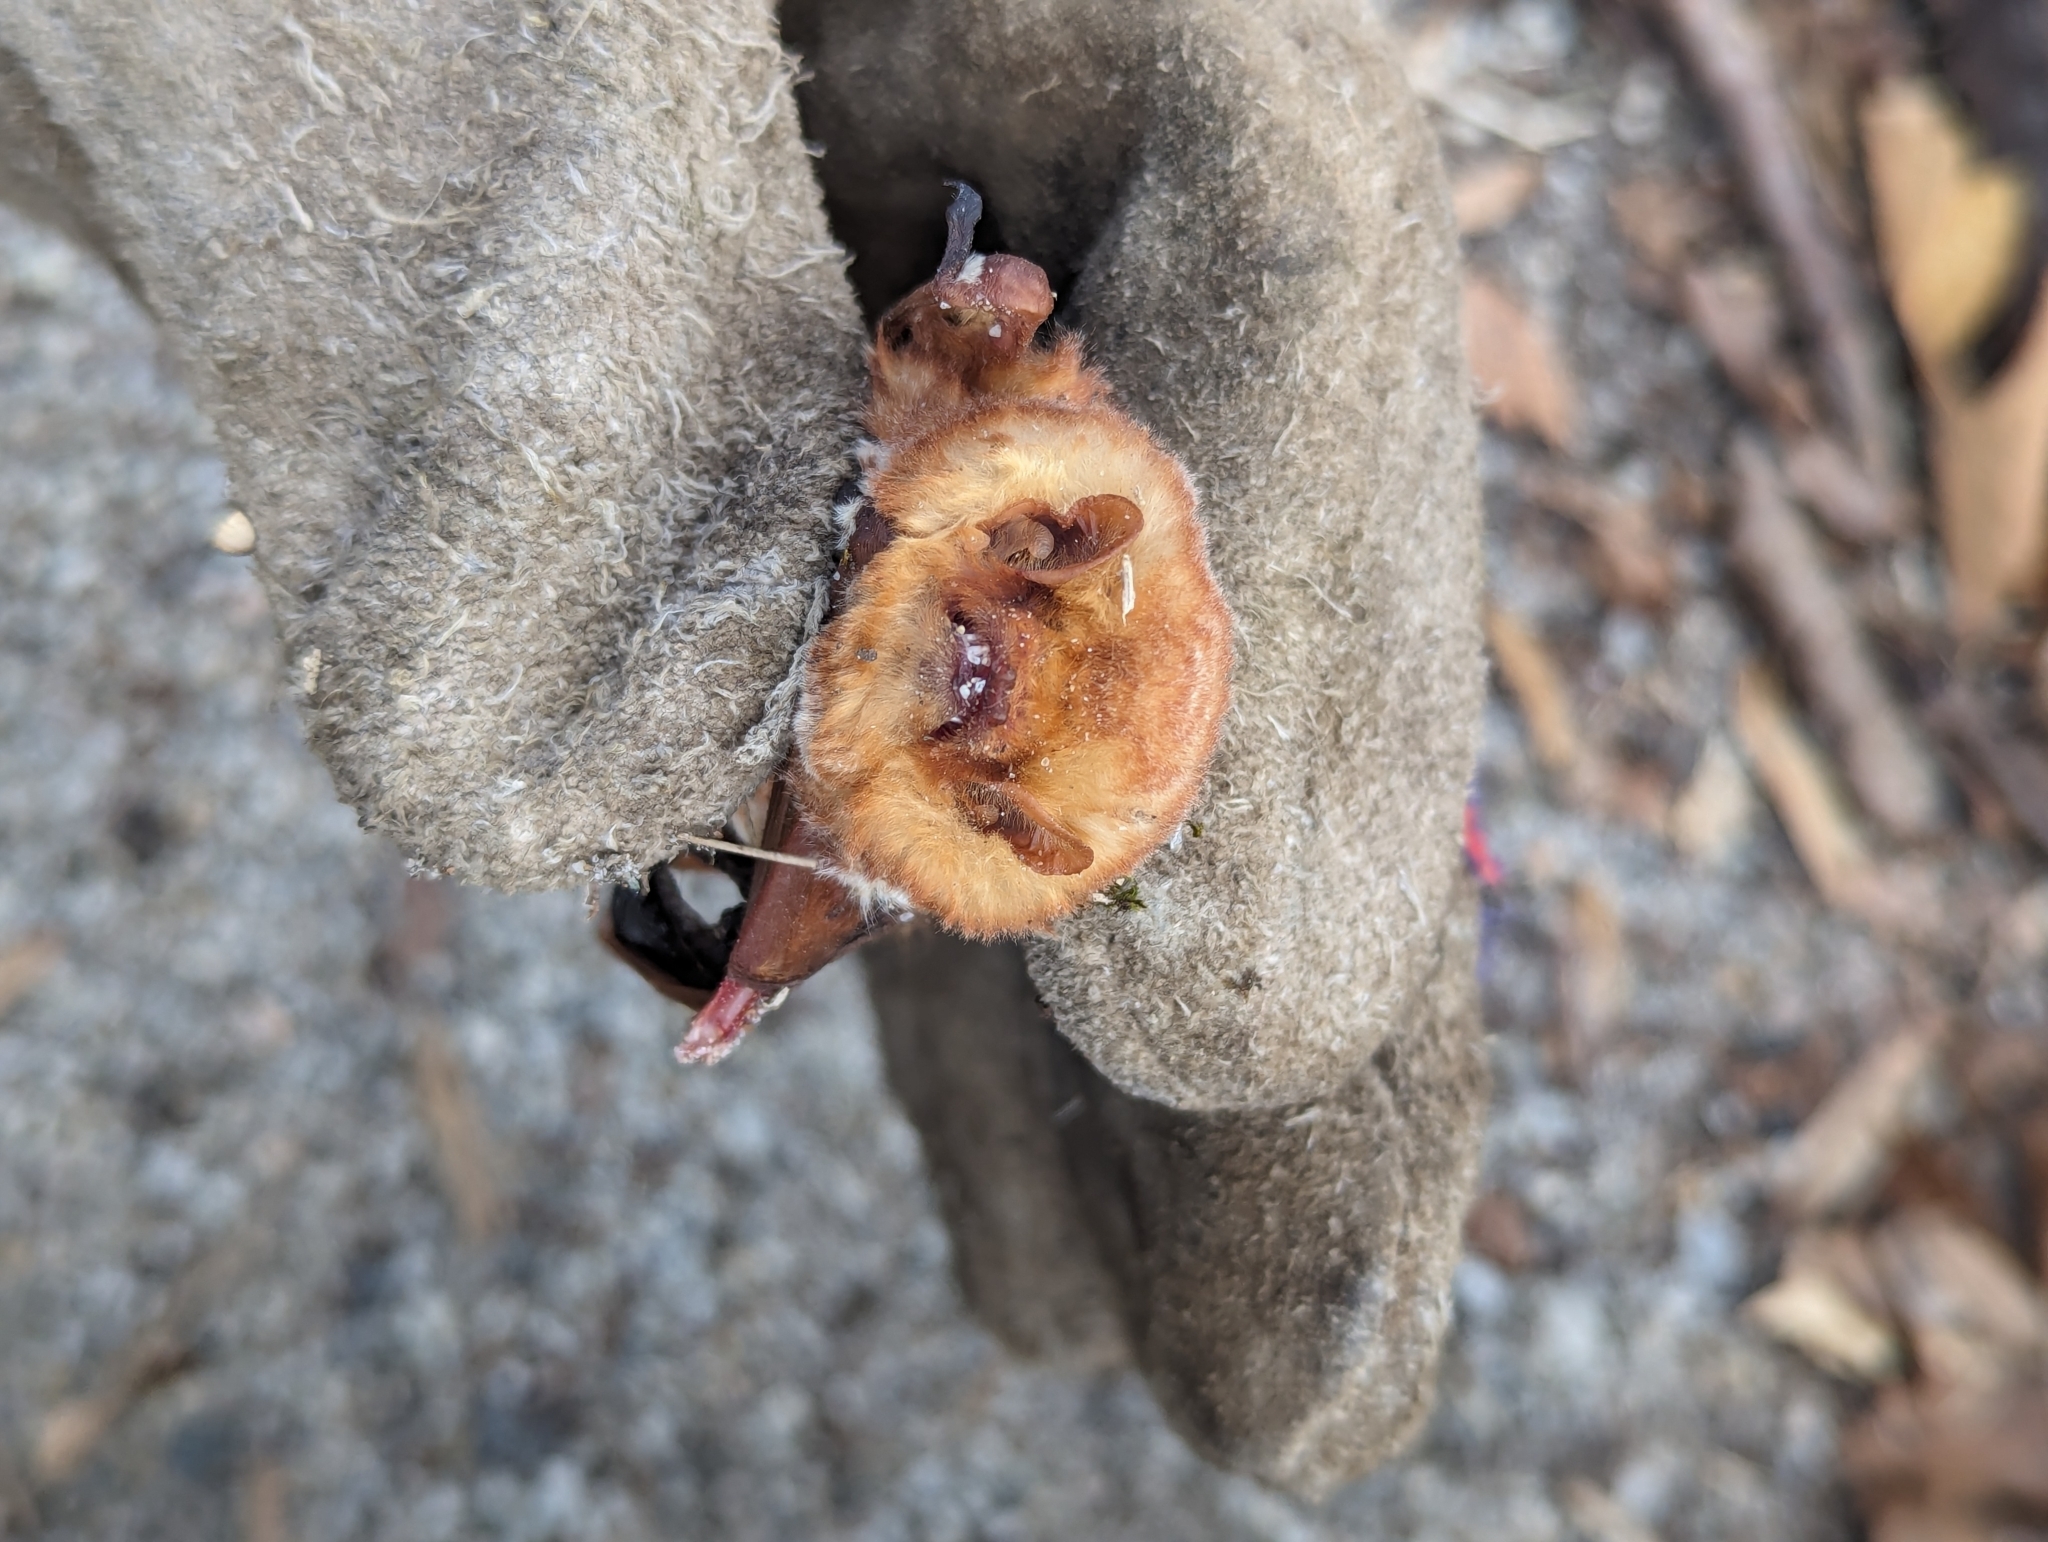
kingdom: Animalia
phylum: Chordata
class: Mammalia
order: Chiroptera
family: Vespertilionidae
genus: Lasiurus
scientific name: Lasiurus borealis
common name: Eastern red bat
